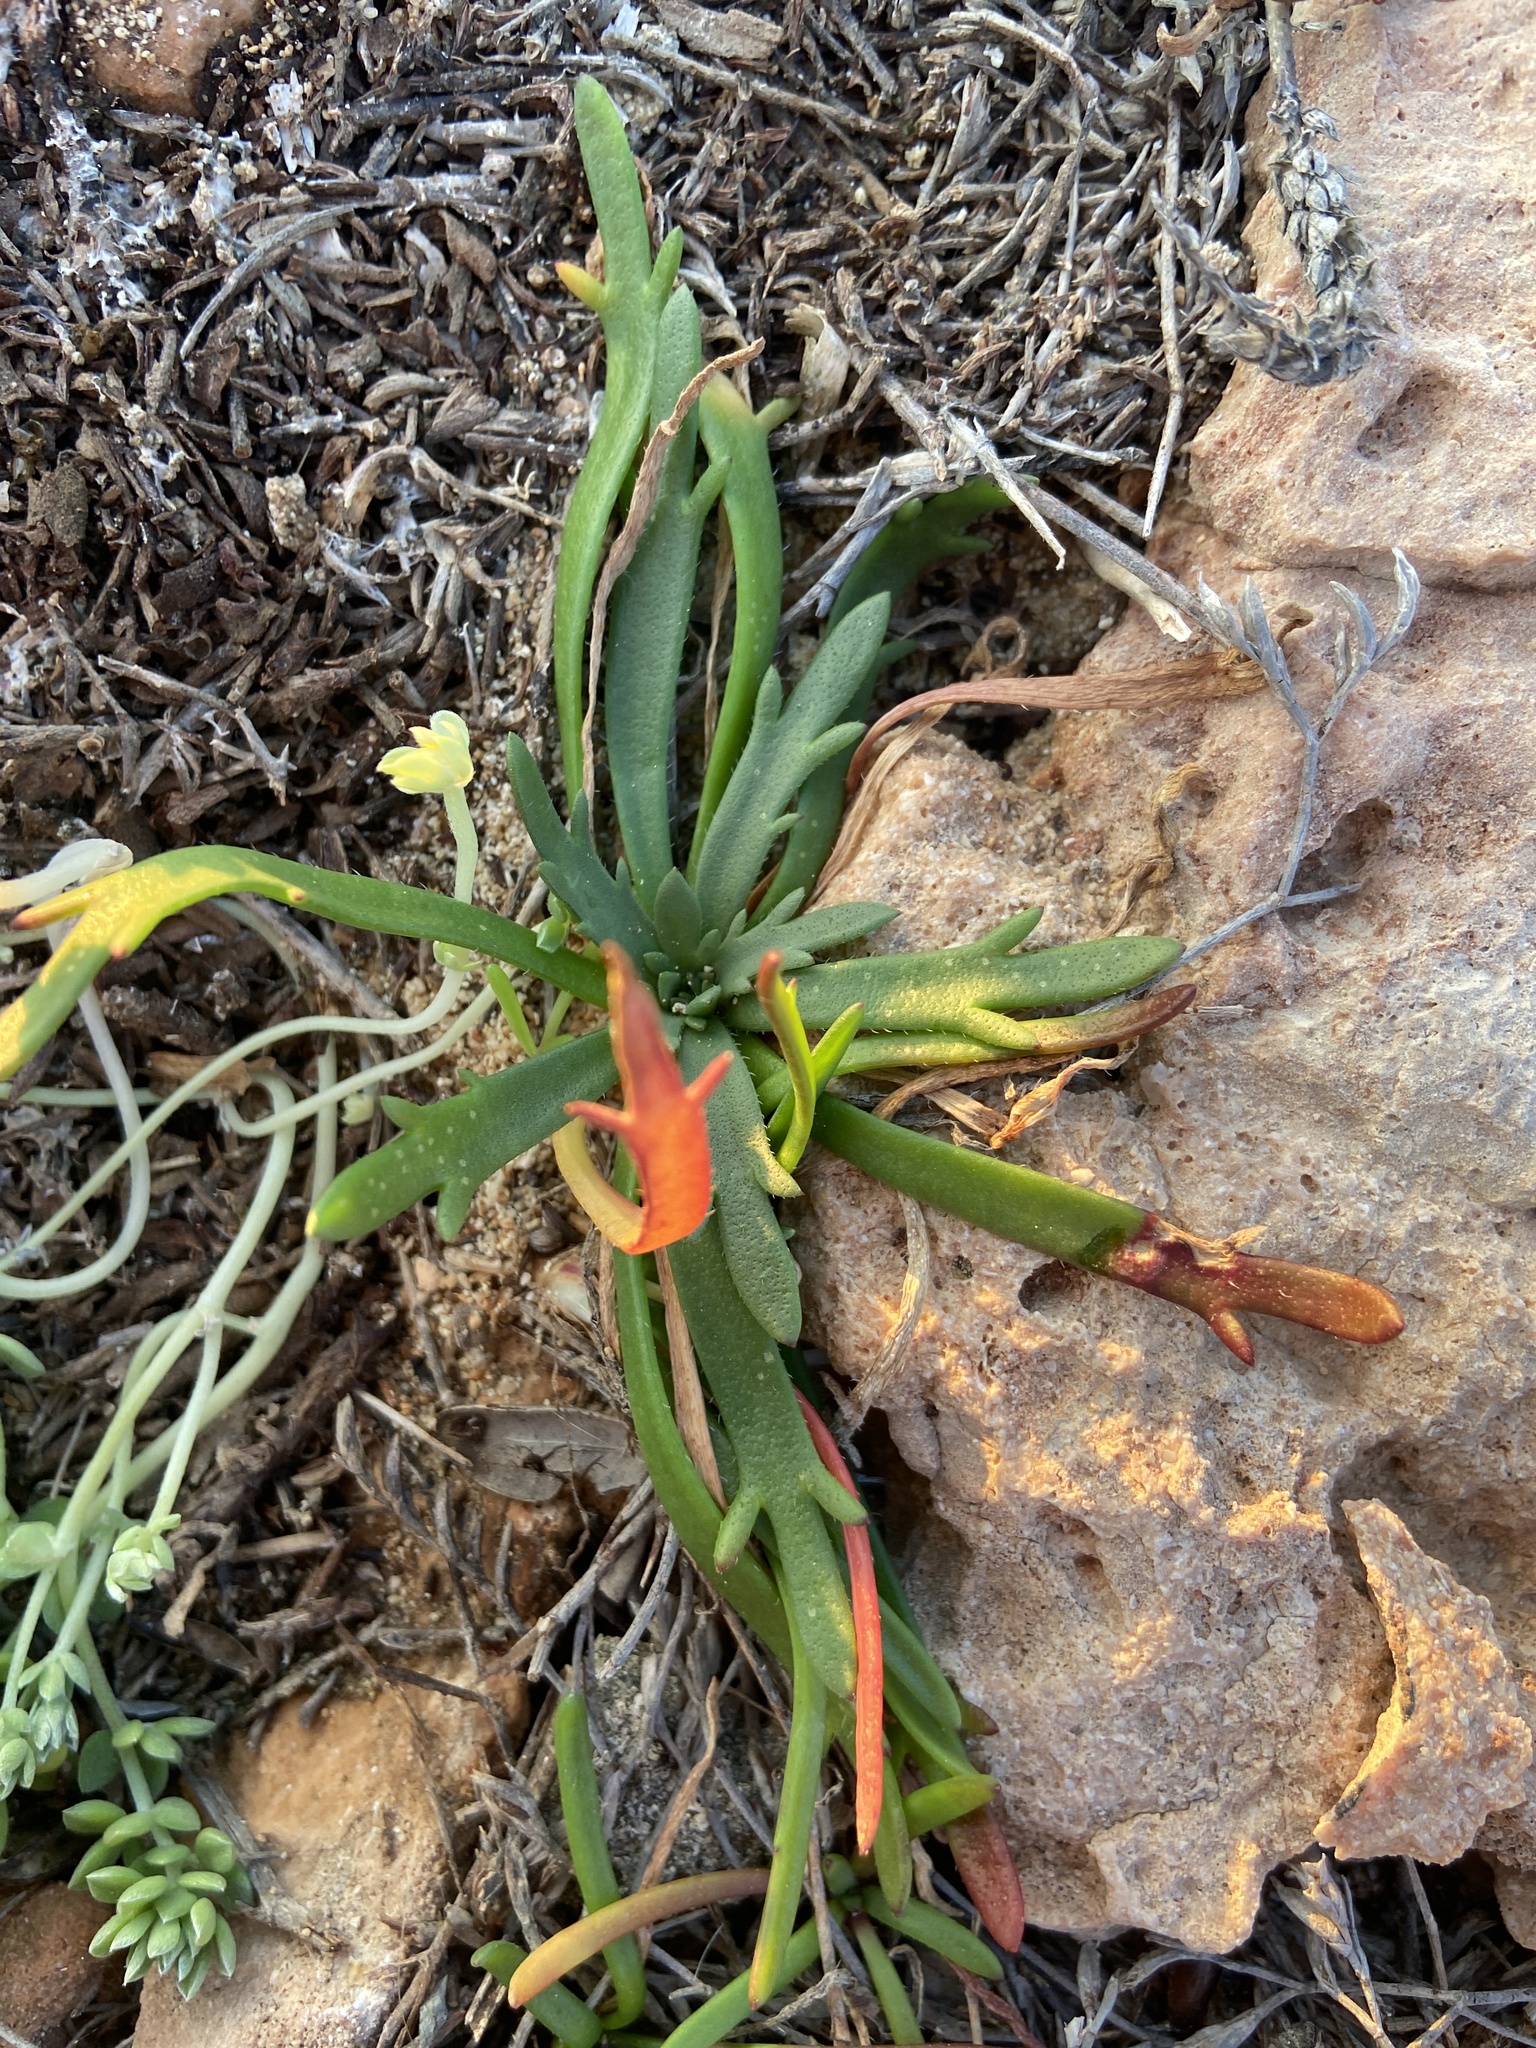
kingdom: Plantae
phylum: Tracheophyta
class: Magnoliopsida
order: Lamiales
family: Plantaginaceae
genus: Plantago
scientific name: Plantago coronopus
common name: Buck's-horn plantain
